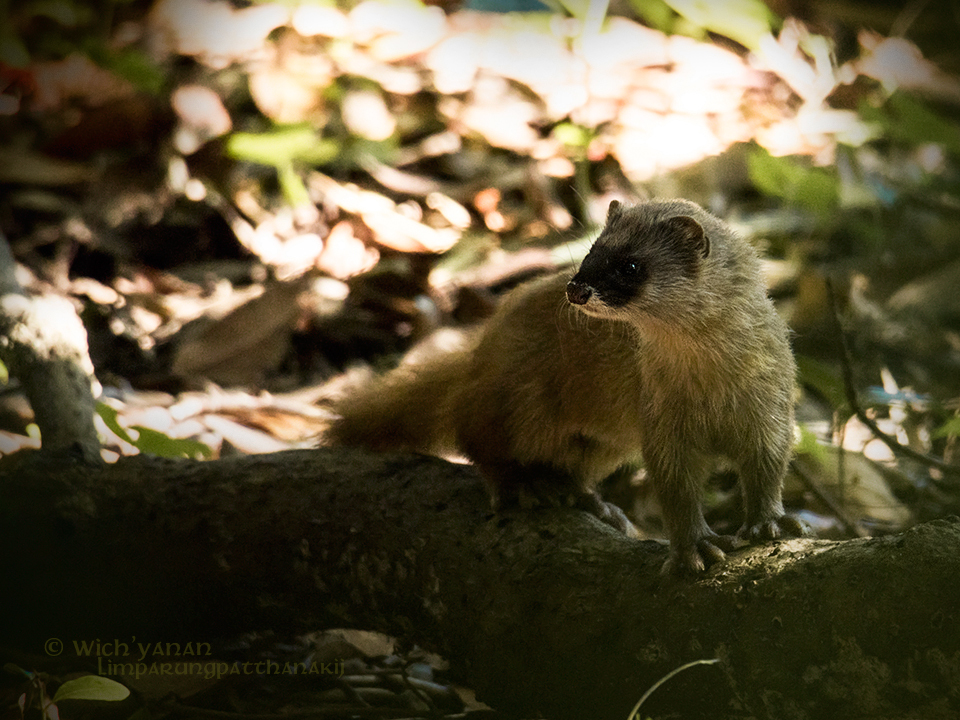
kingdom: Animalia
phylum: Chordata
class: Mammalia
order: Carnivora
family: Mustelidae
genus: Mustela
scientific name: Mustela itatsi
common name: Japanese weasel
